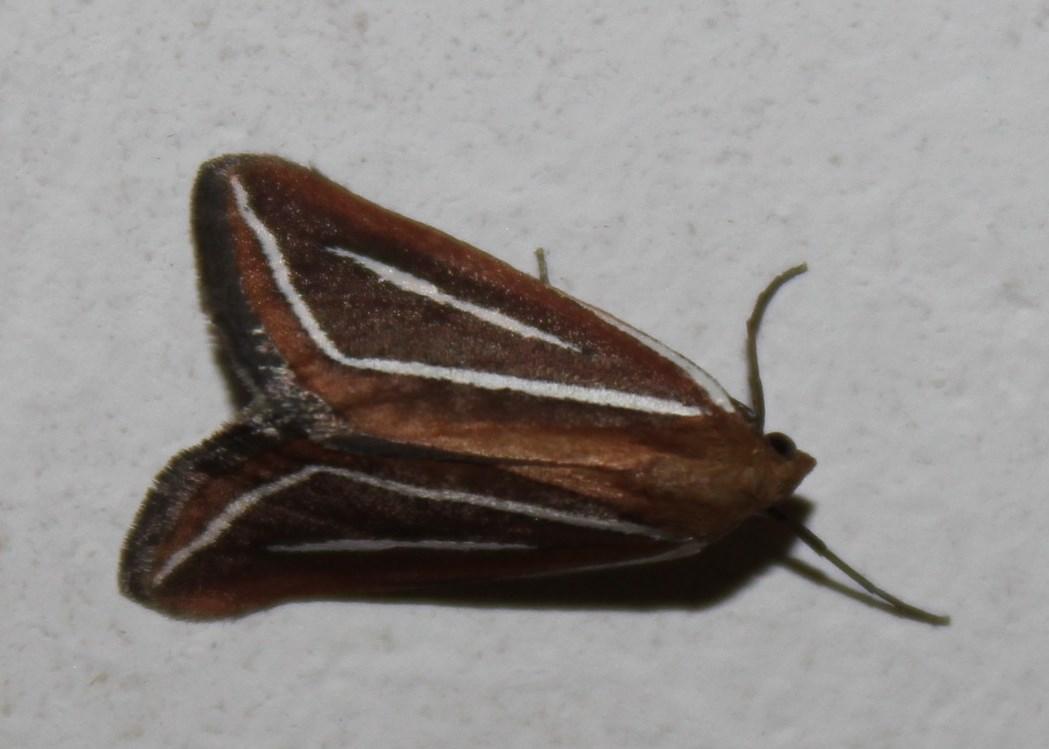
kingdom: Animalia
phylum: Arthropoda
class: Insecta
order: Lepidoptera
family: Geometridae
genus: Pseudomaenas
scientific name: Pseudomaenas leucograpta
